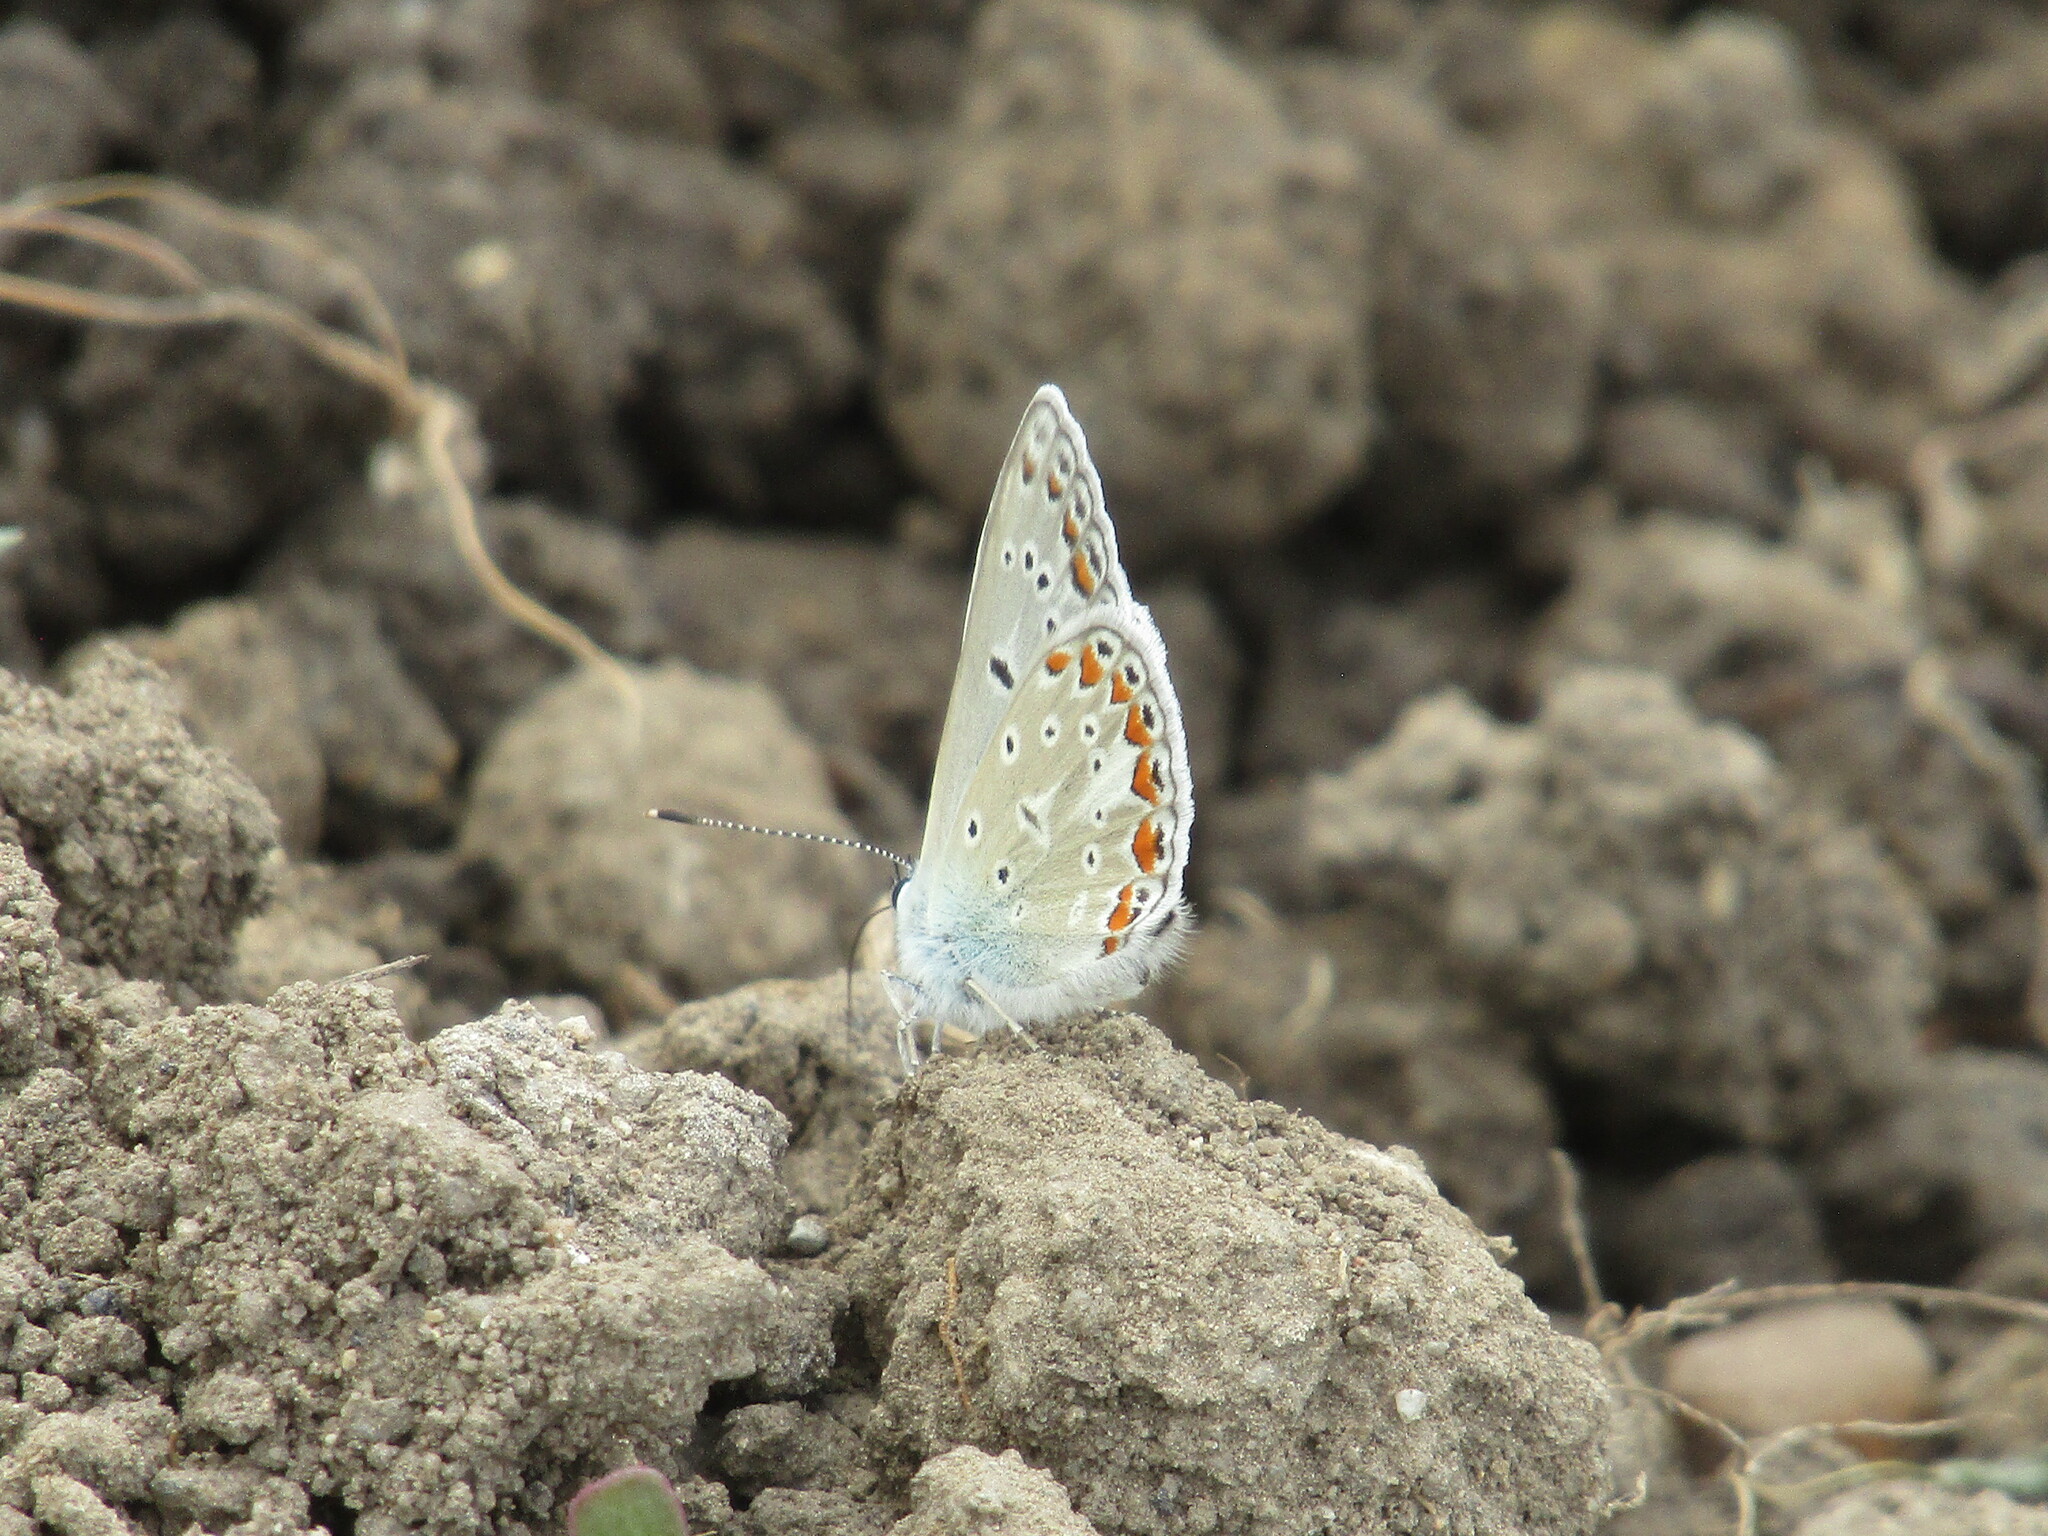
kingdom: Animalia
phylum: Arthropoda
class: Insecta
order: Lepidoptera
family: Lycaenidae
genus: Polyommatus
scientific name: Polyommatus
